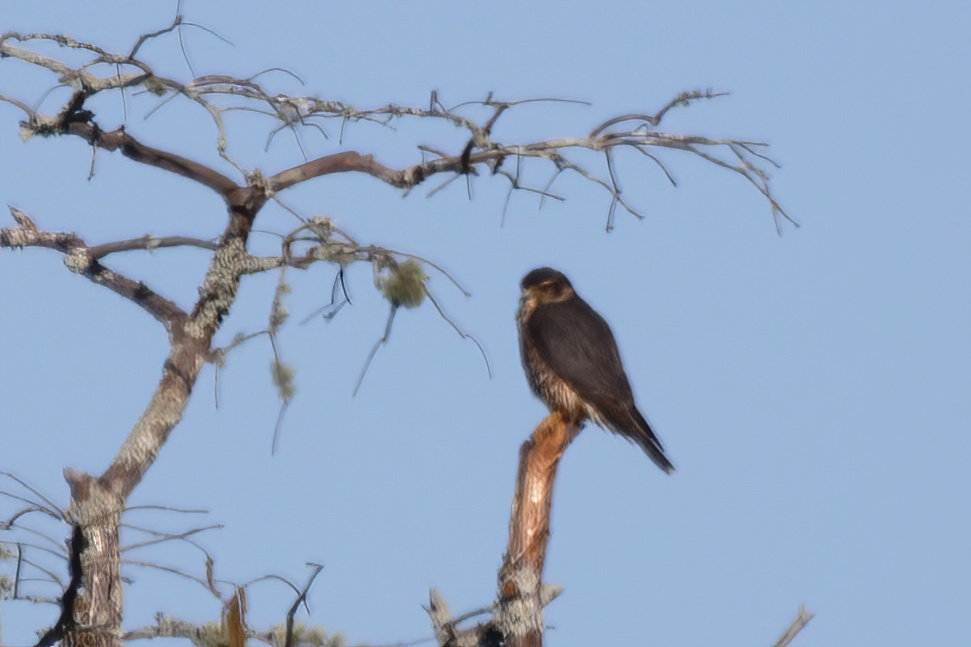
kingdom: Animalia
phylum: Chordata
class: Aves
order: Falconiformes
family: Falconidae
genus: Falco
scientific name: Falco columbarius
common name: Merlin
